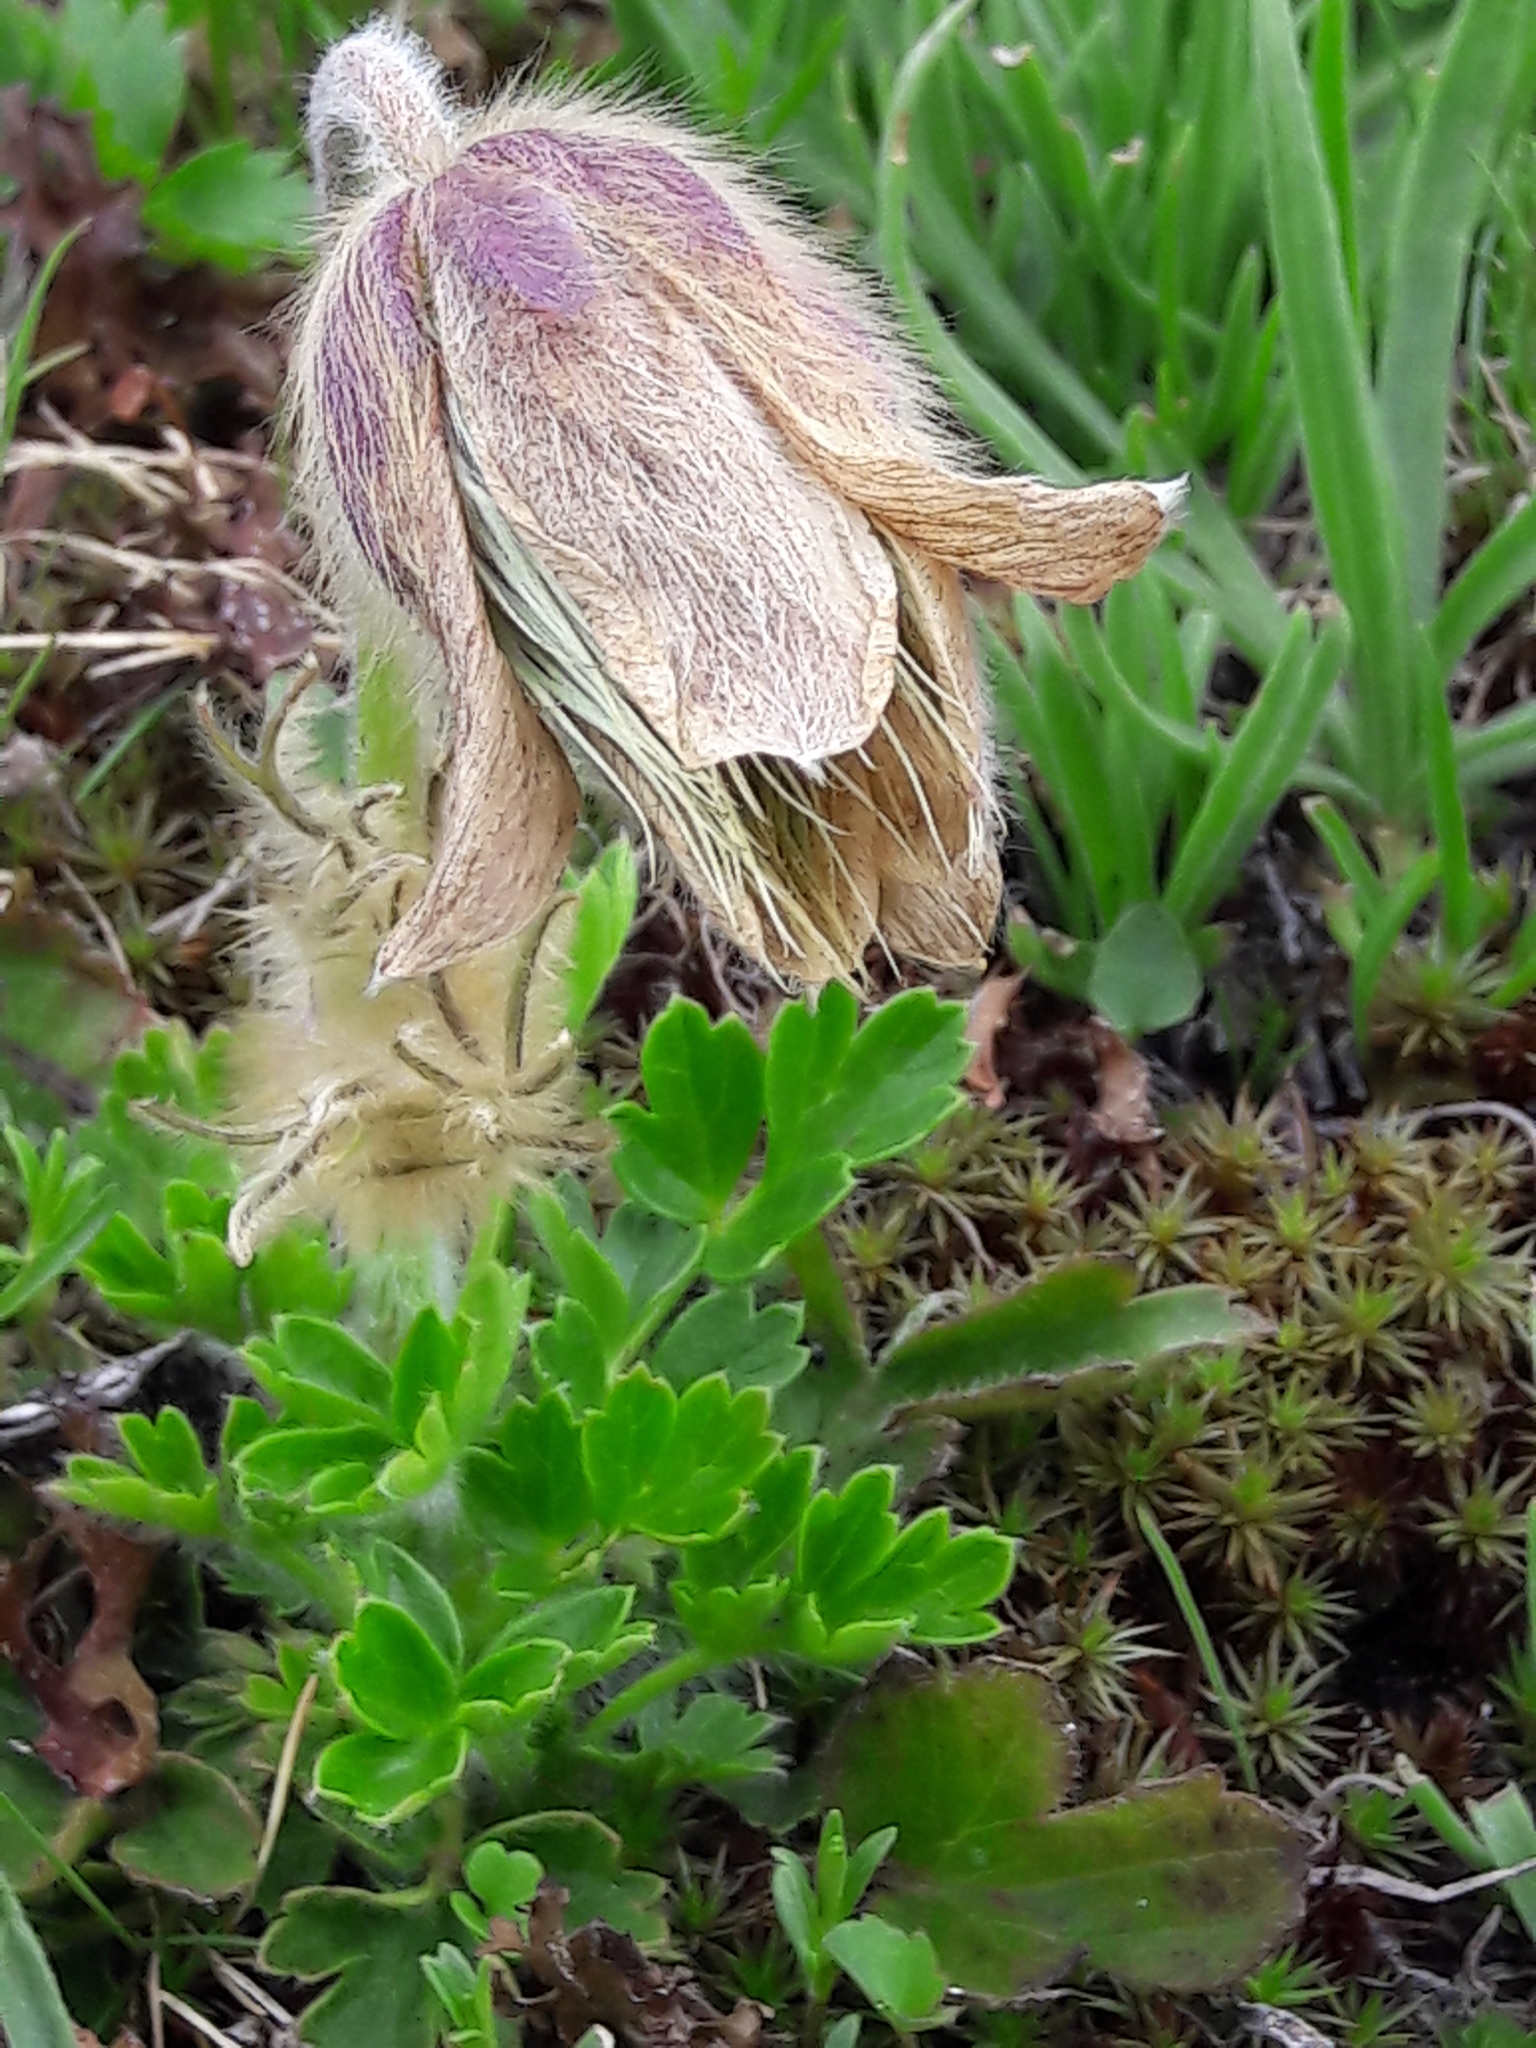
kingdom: Plantae
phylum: Tracheophyta
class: Magnoliopsida
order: Ranunculales
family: Ranunculaceae
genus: Pulsatilla
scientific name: Pulsatilla vernalis
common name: Spring pasque flower
